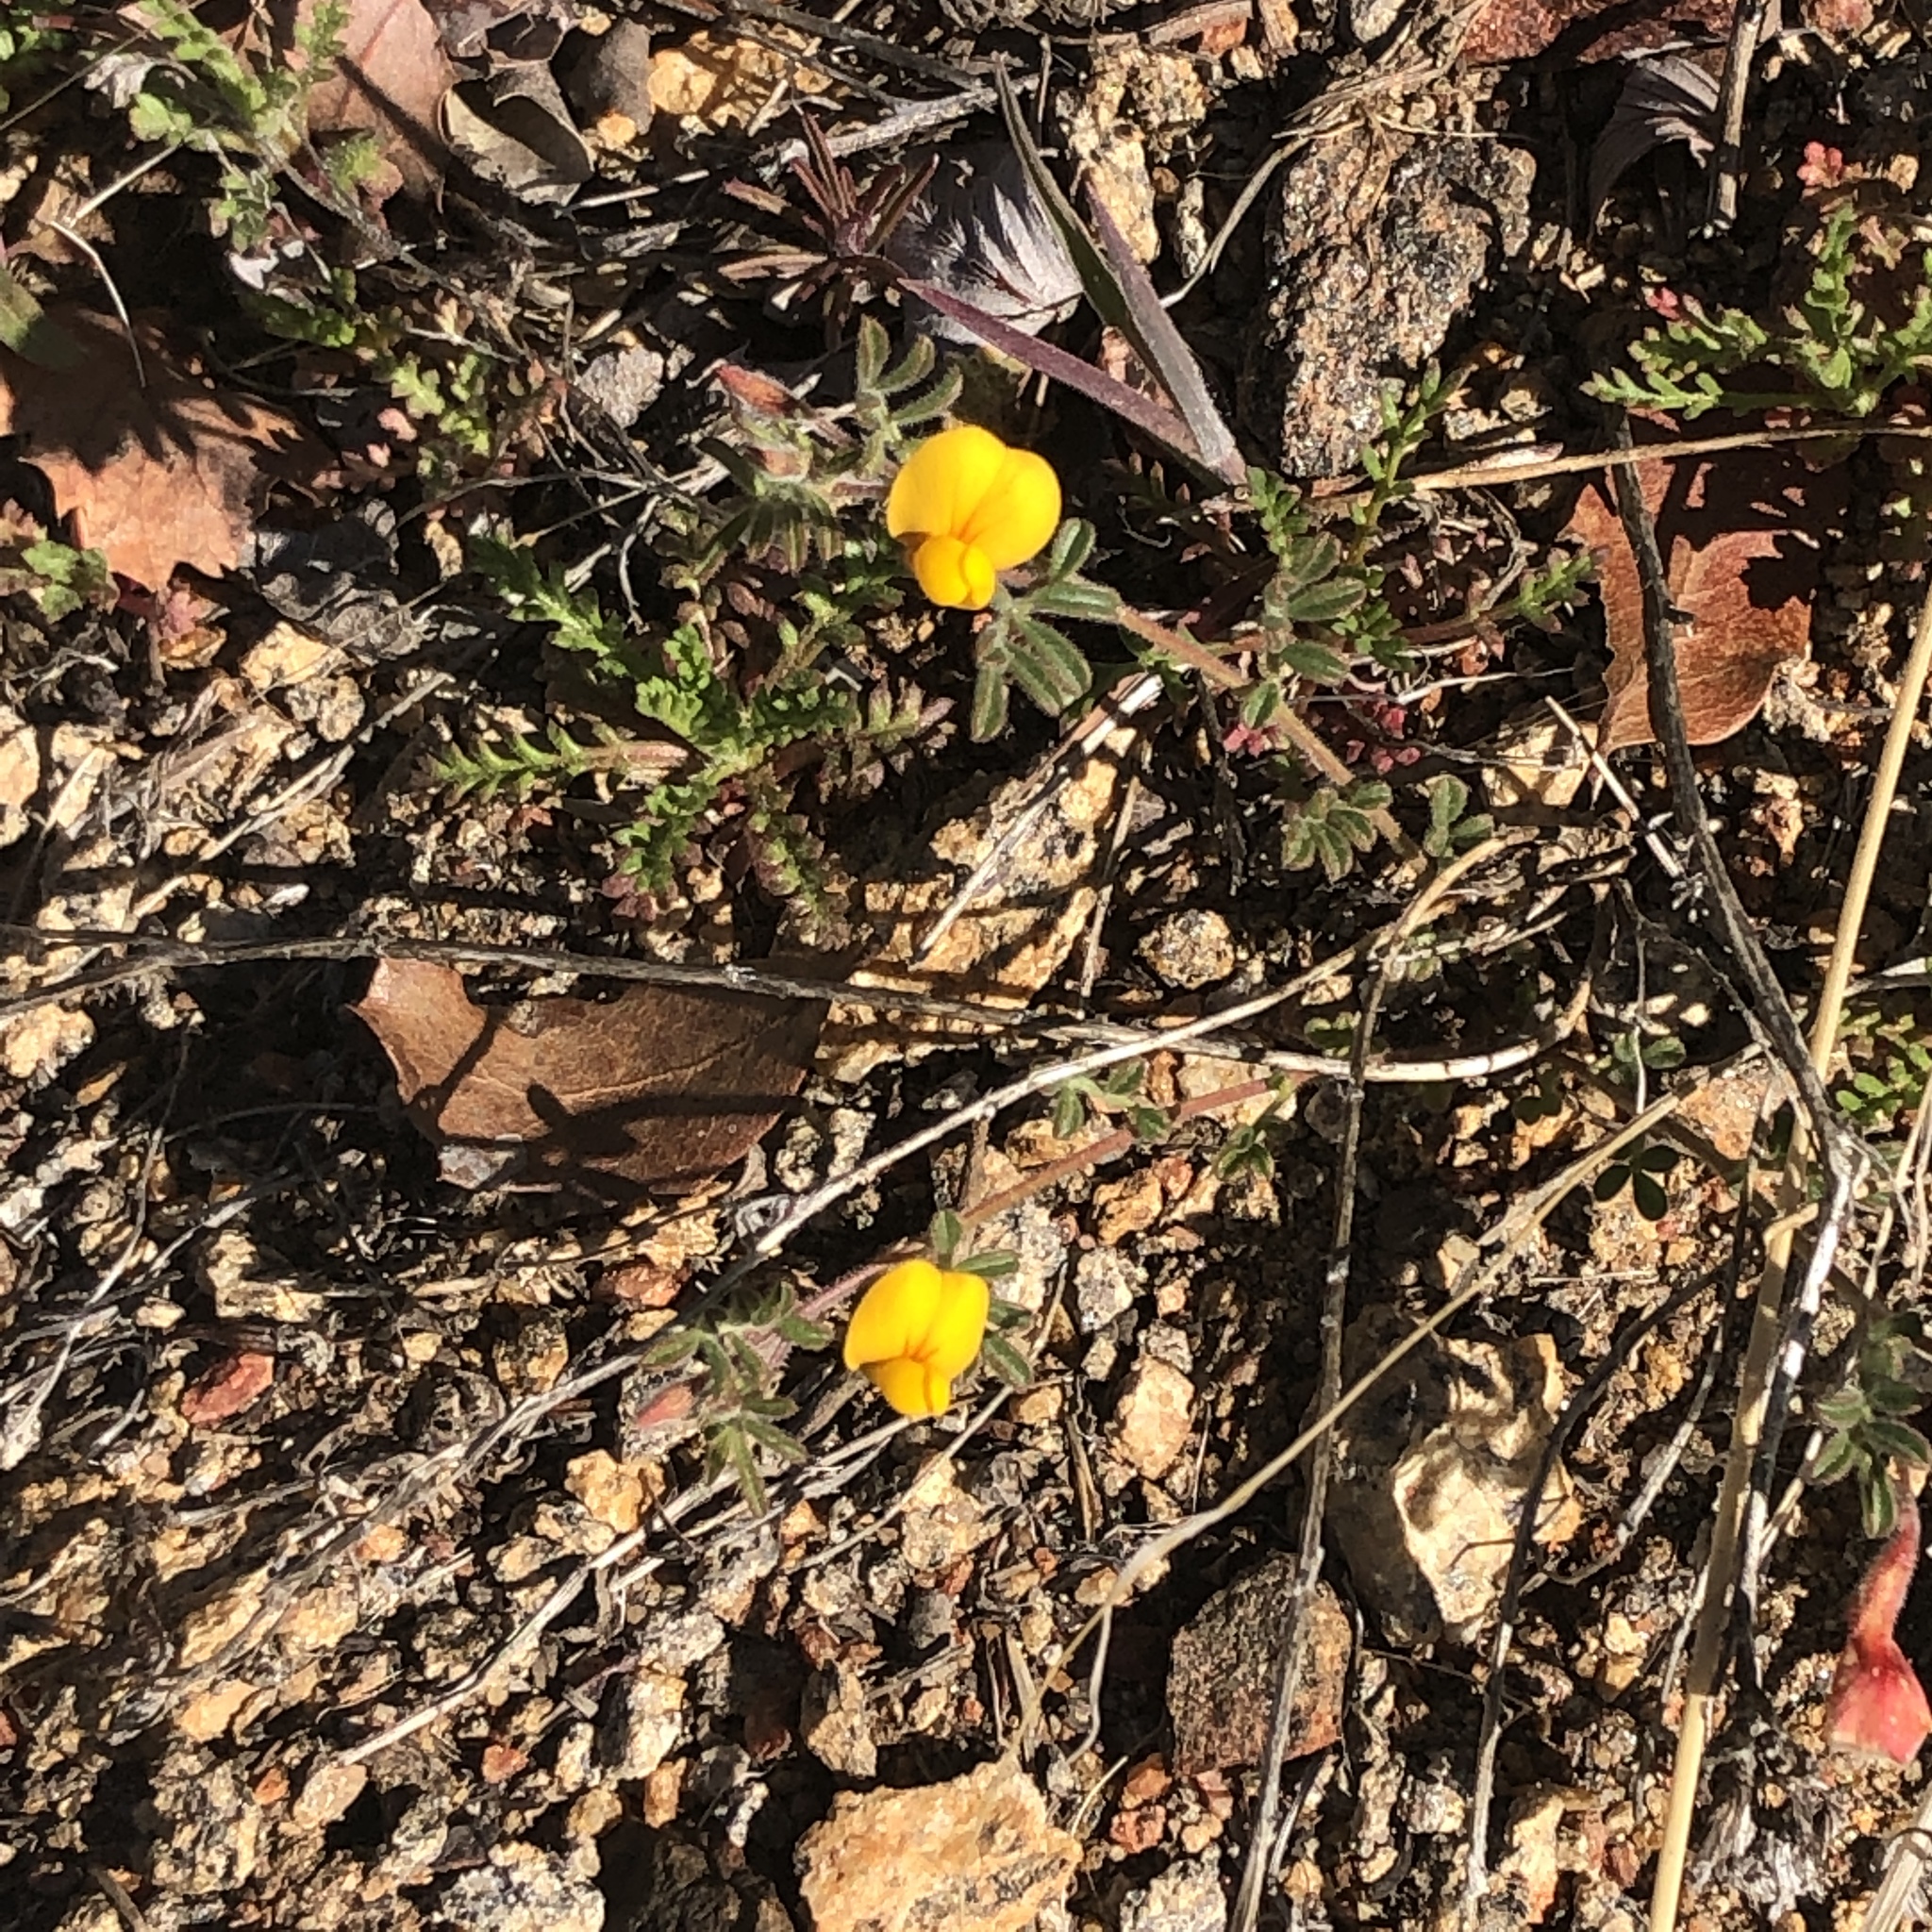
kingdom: Plantae
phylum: Tracheophyta
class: Magnoliopsida
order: Fabales
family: Fabaceae
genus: Acmispon
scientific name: Acmispon strigosus
